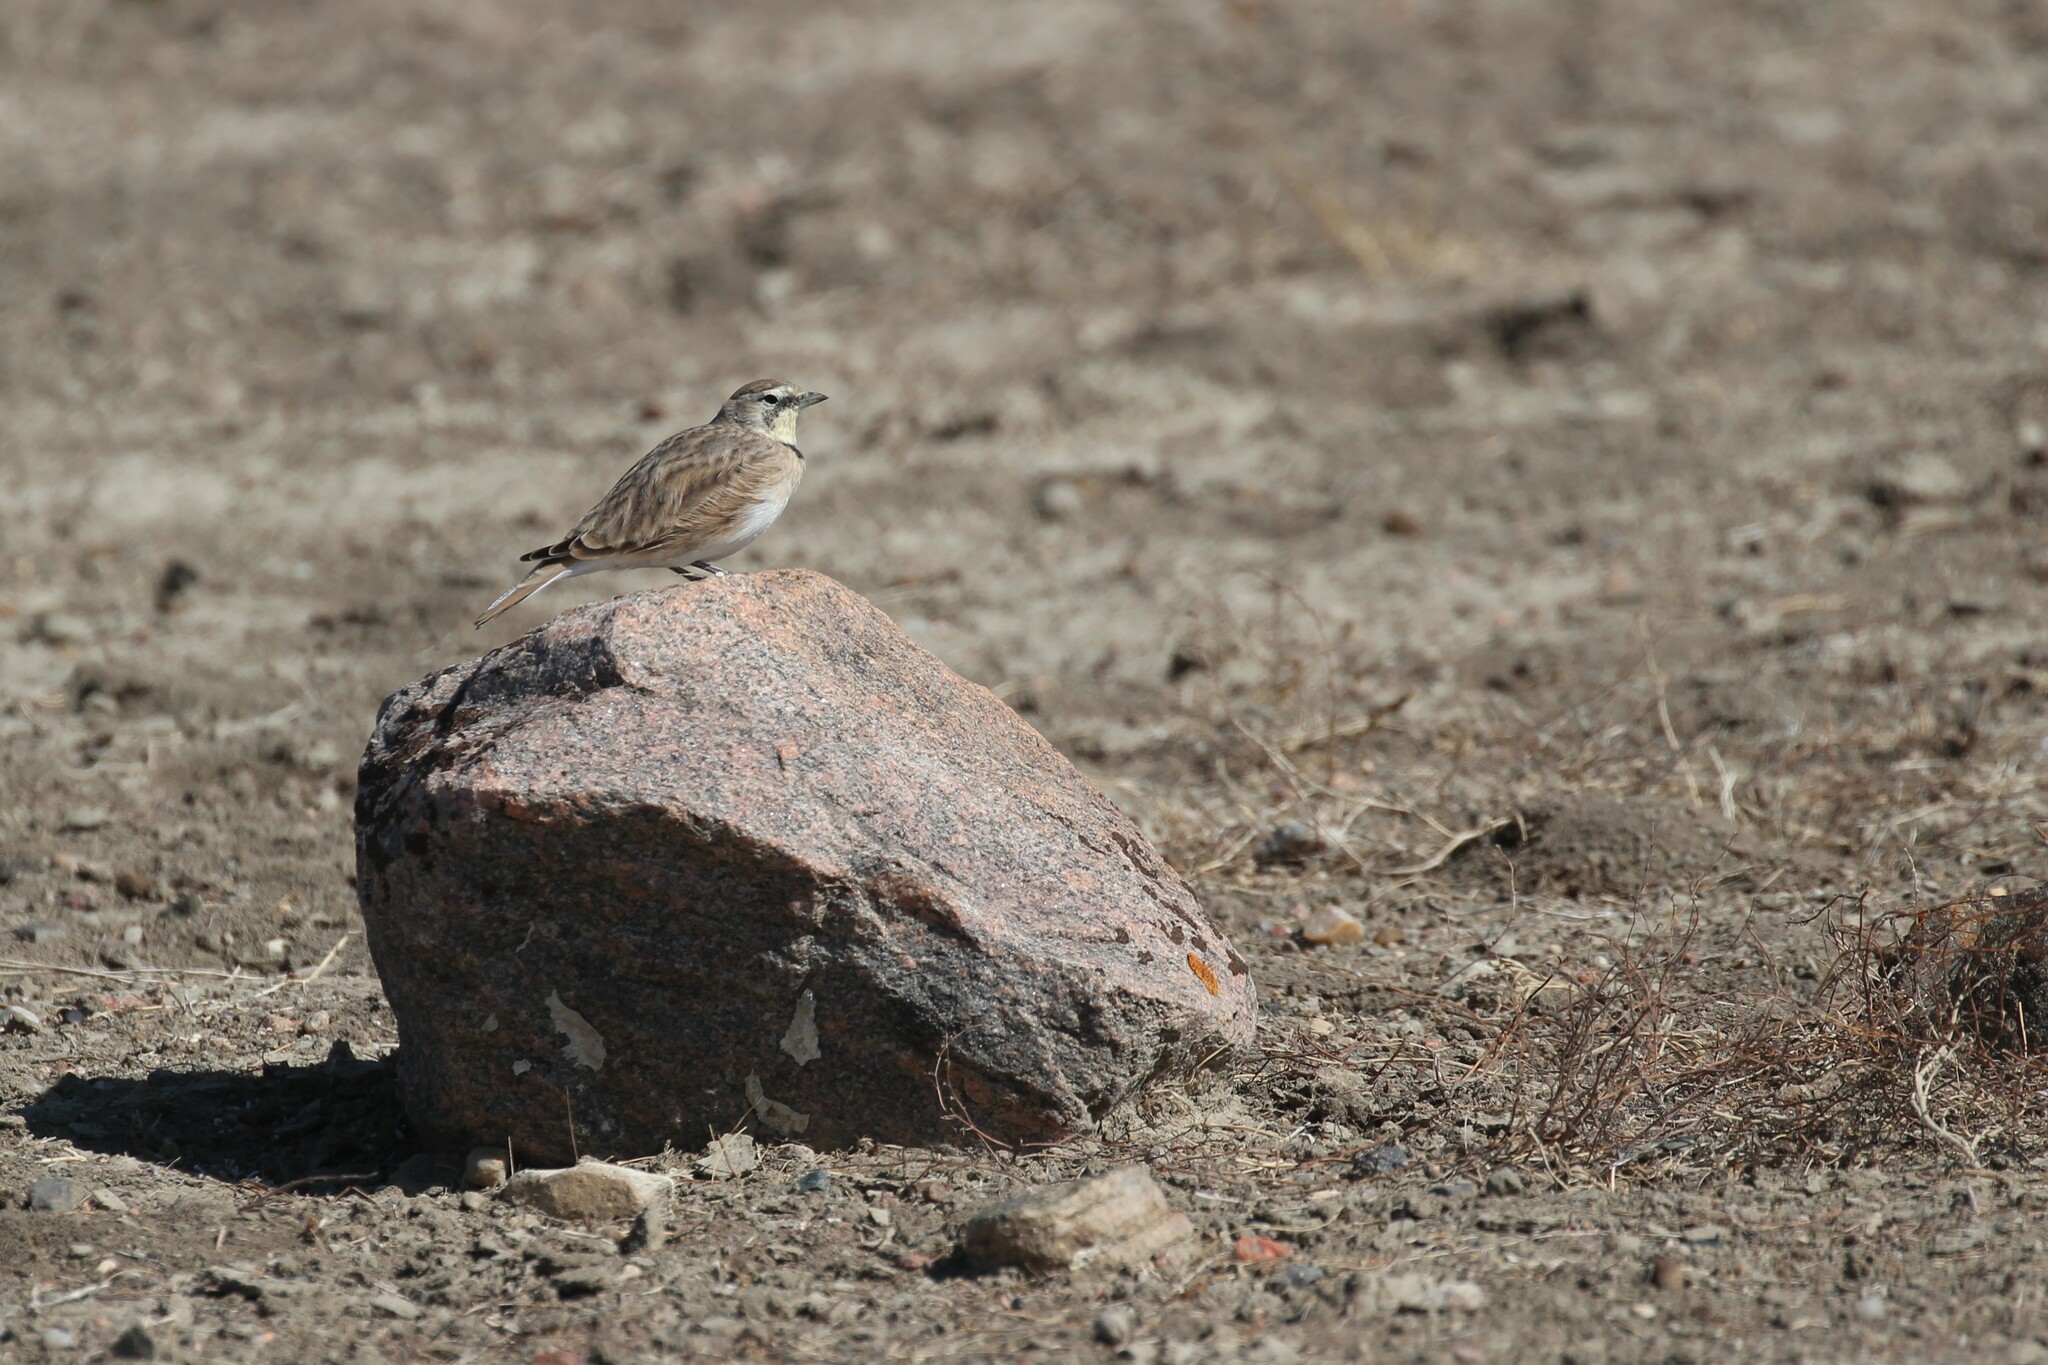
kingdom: Animalia
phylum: Chordata
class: Aves
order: Passeriformes
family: Alaudidae
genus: Eremophila
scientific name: Eremophila alpestris
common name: Horned lark
